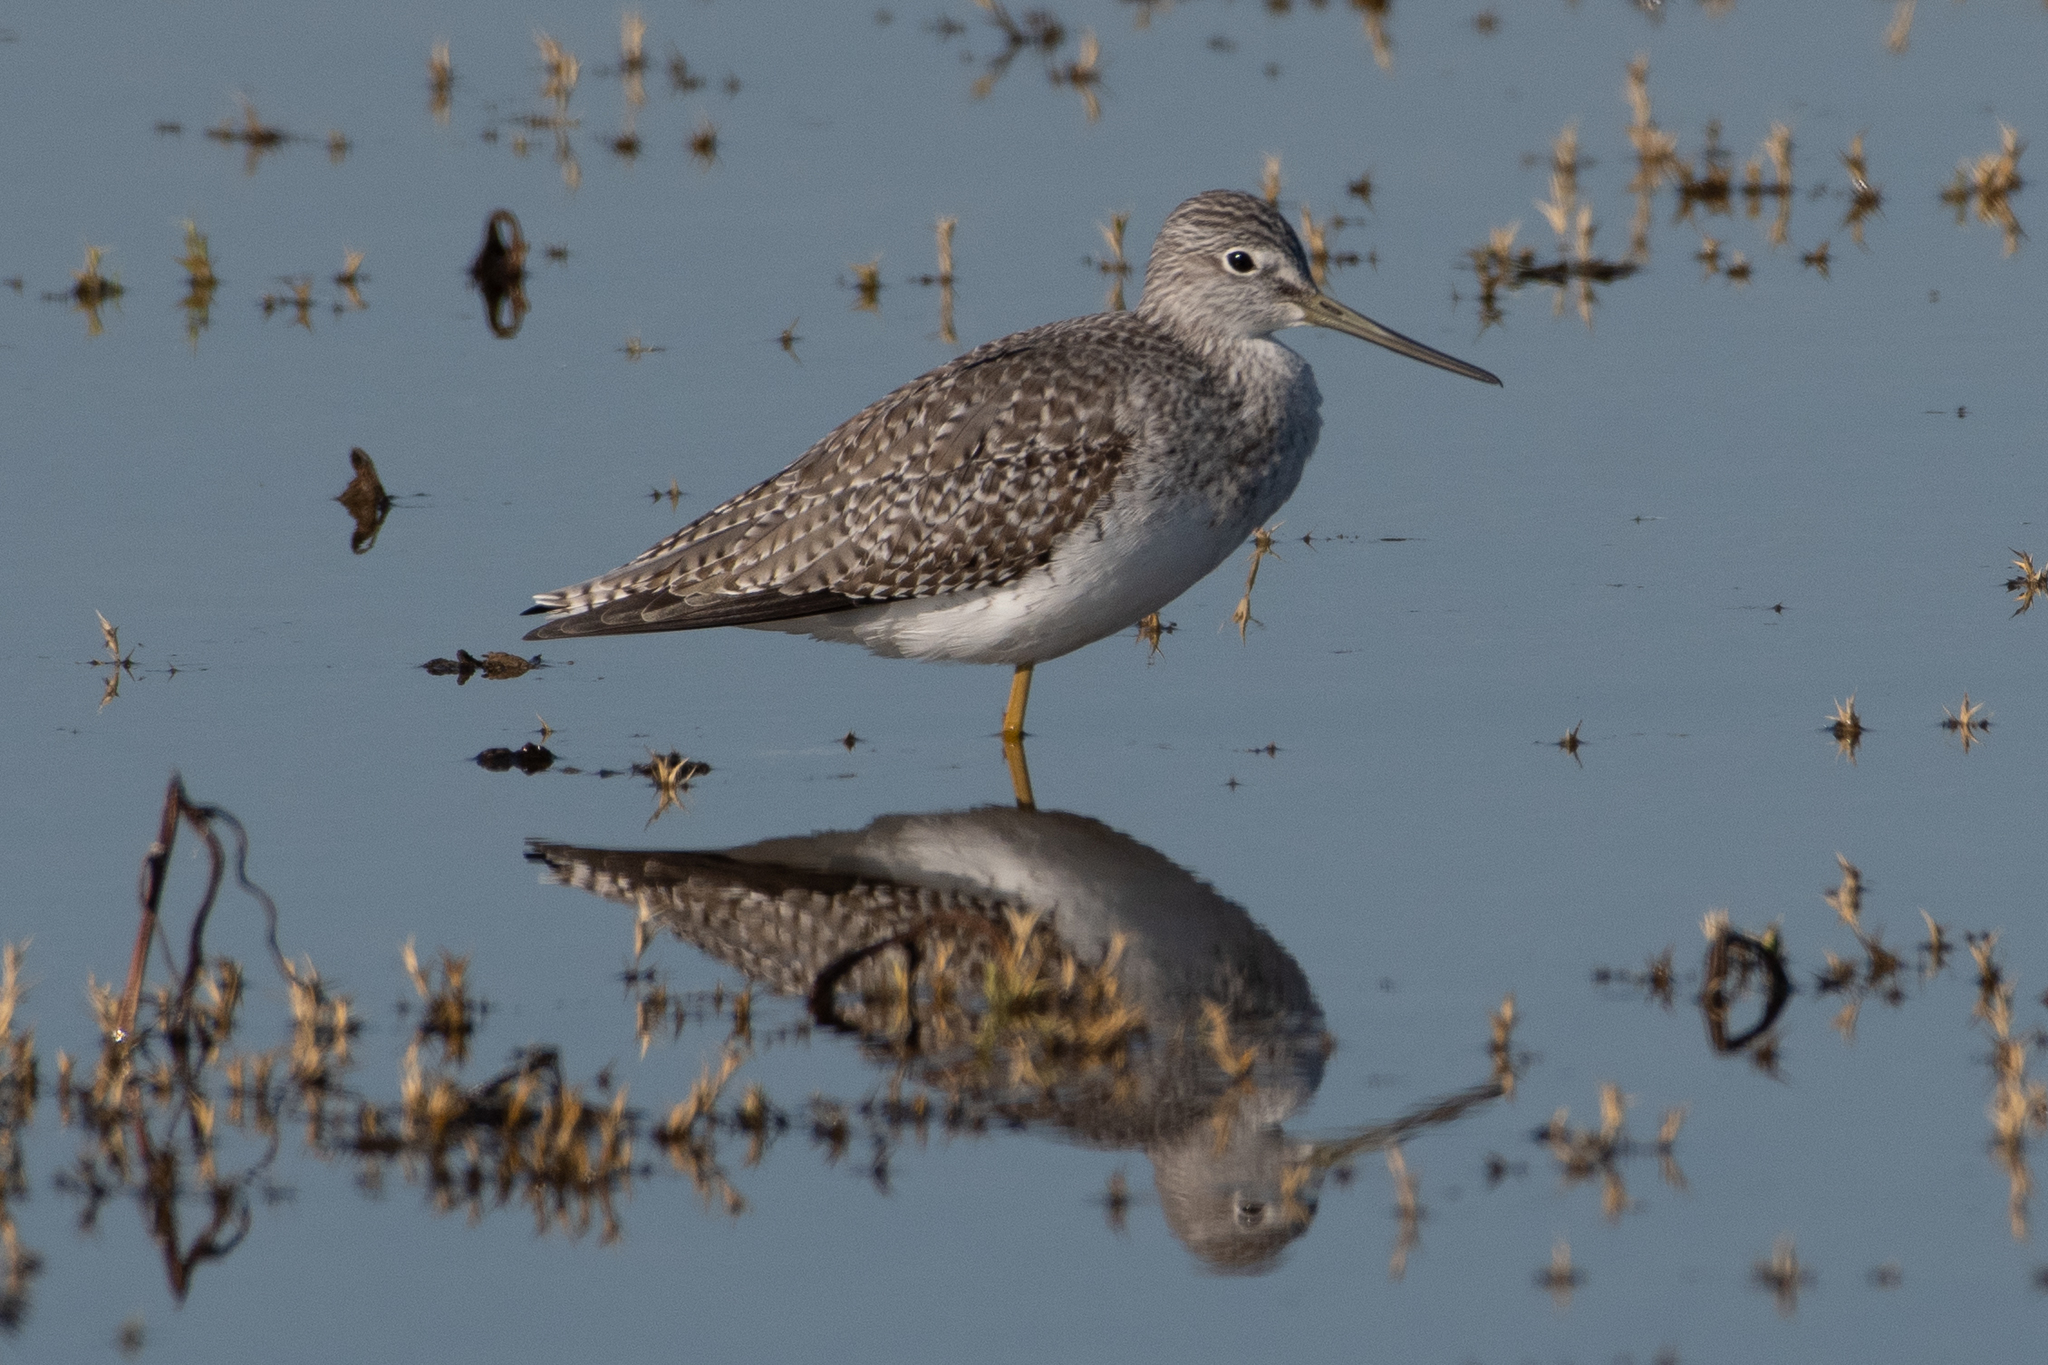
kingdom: Animalia
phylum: Chordata
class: Aves
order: Charadriiformes
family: Scolopacidae
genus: Tringa
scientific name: Tringa melanoleuca
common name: Greater yellowlegs
